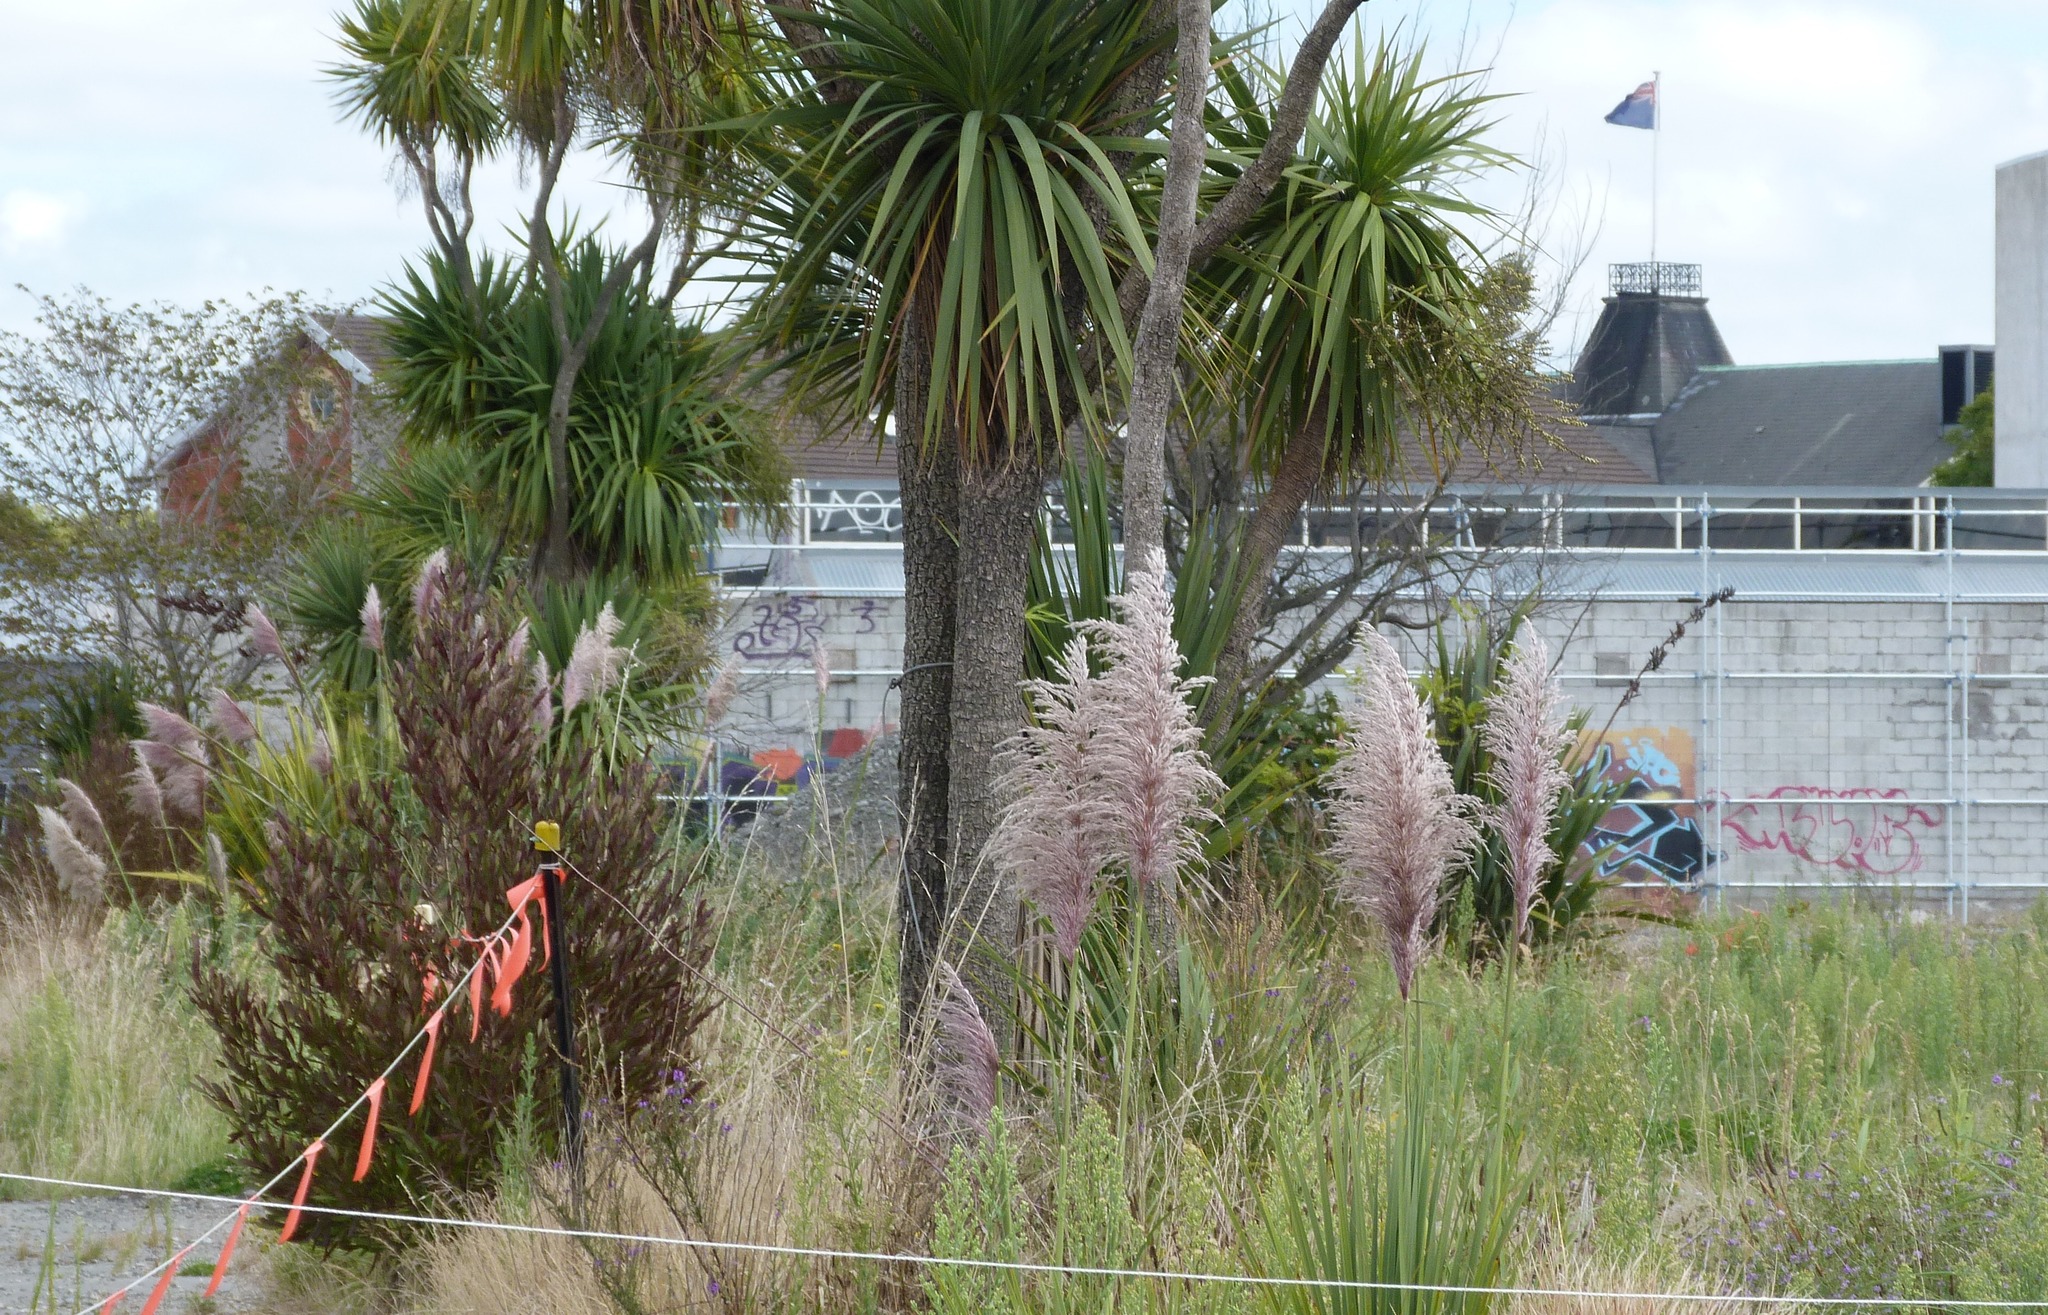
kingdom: Plantae
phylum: Tracheophyta
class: Liliopsida
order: Poales
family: Poaceae
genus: Cortaderia
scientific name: Cortaderia jubata
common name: Purple pampas grass
